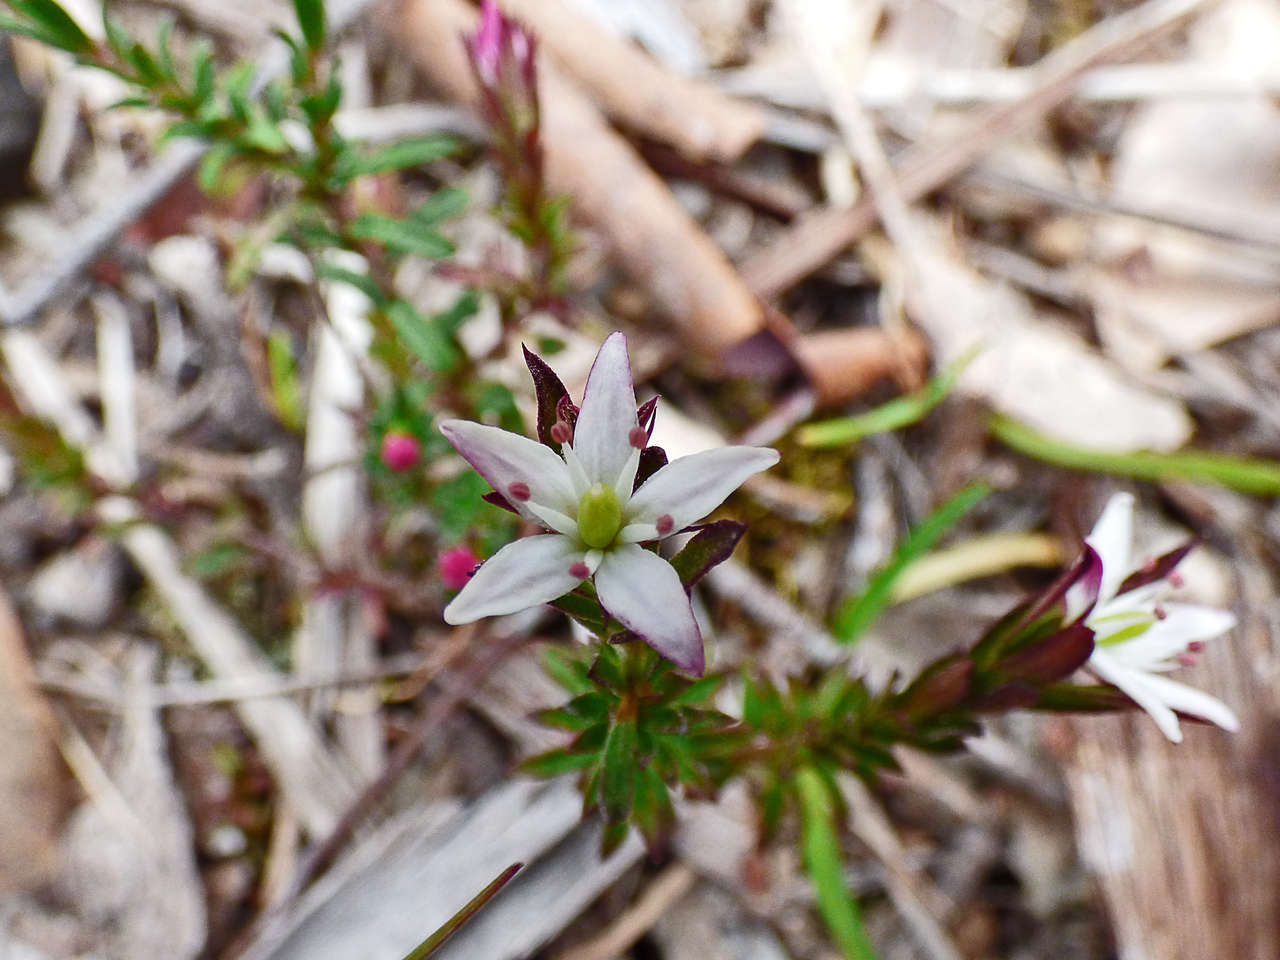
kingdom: Plantae
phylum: Tracheophyta
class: Magnoliopsida
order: Apiales
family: Pittosporaceae
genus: Rhytidosporum
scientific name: Rhytidosporum procumbens
